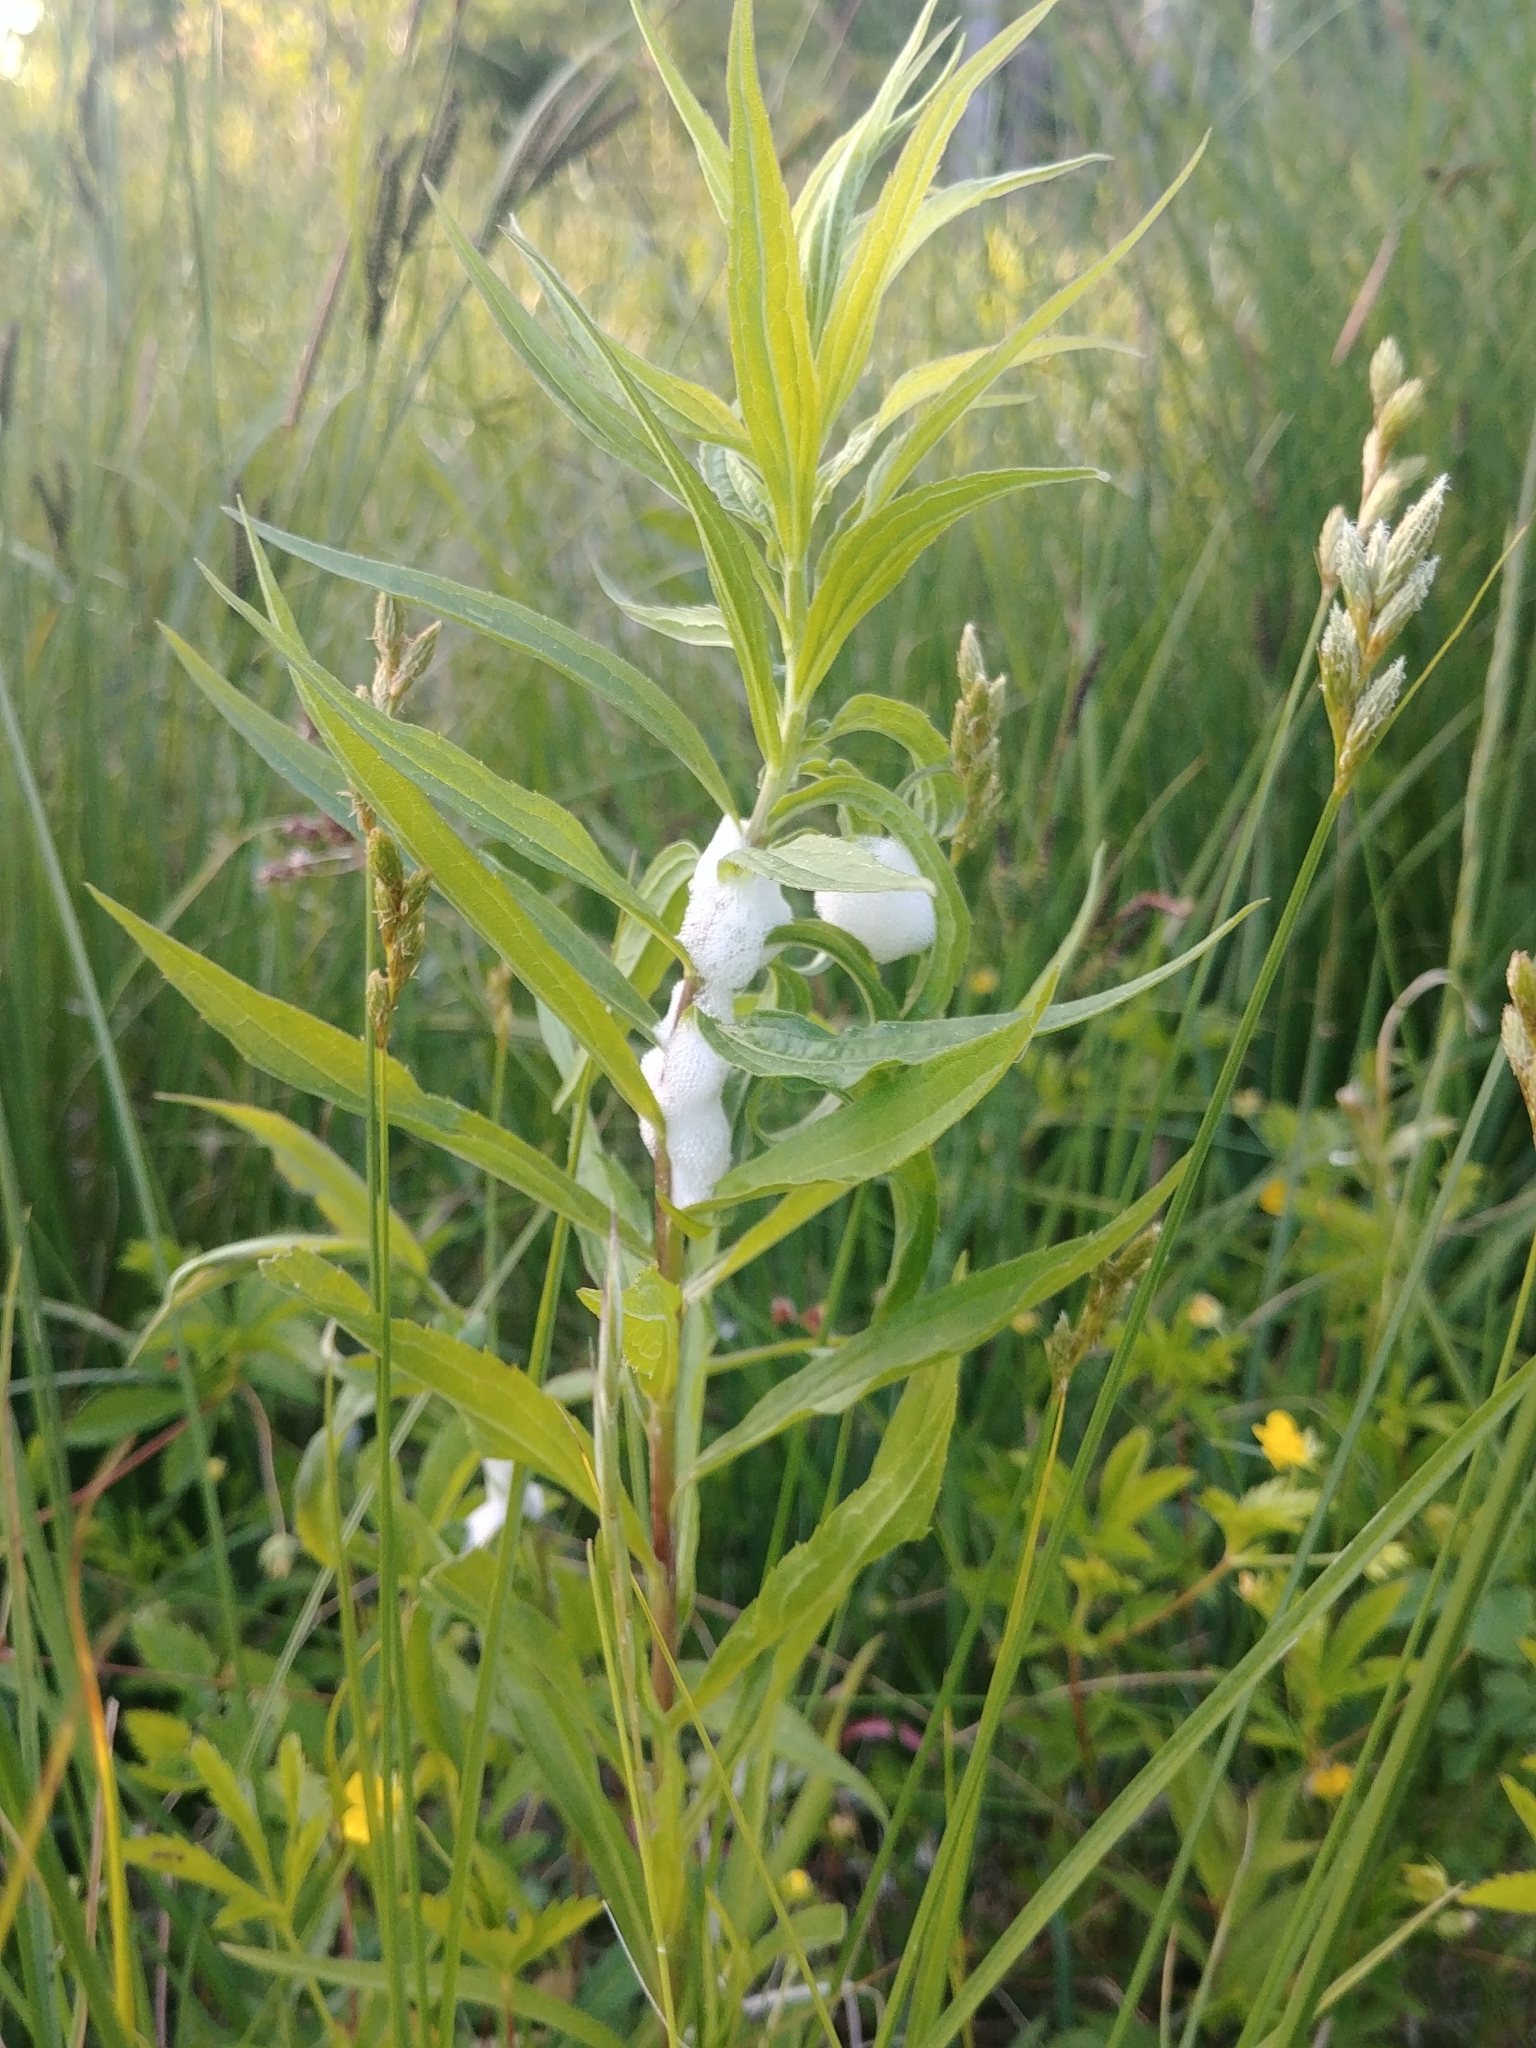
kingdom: Plantae
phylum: Tracheophyta
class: Magnoliopsida
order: Asterales
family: Asteraceae
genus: Solidago
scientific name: Solidago canadensis
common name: Canada goldenrod
